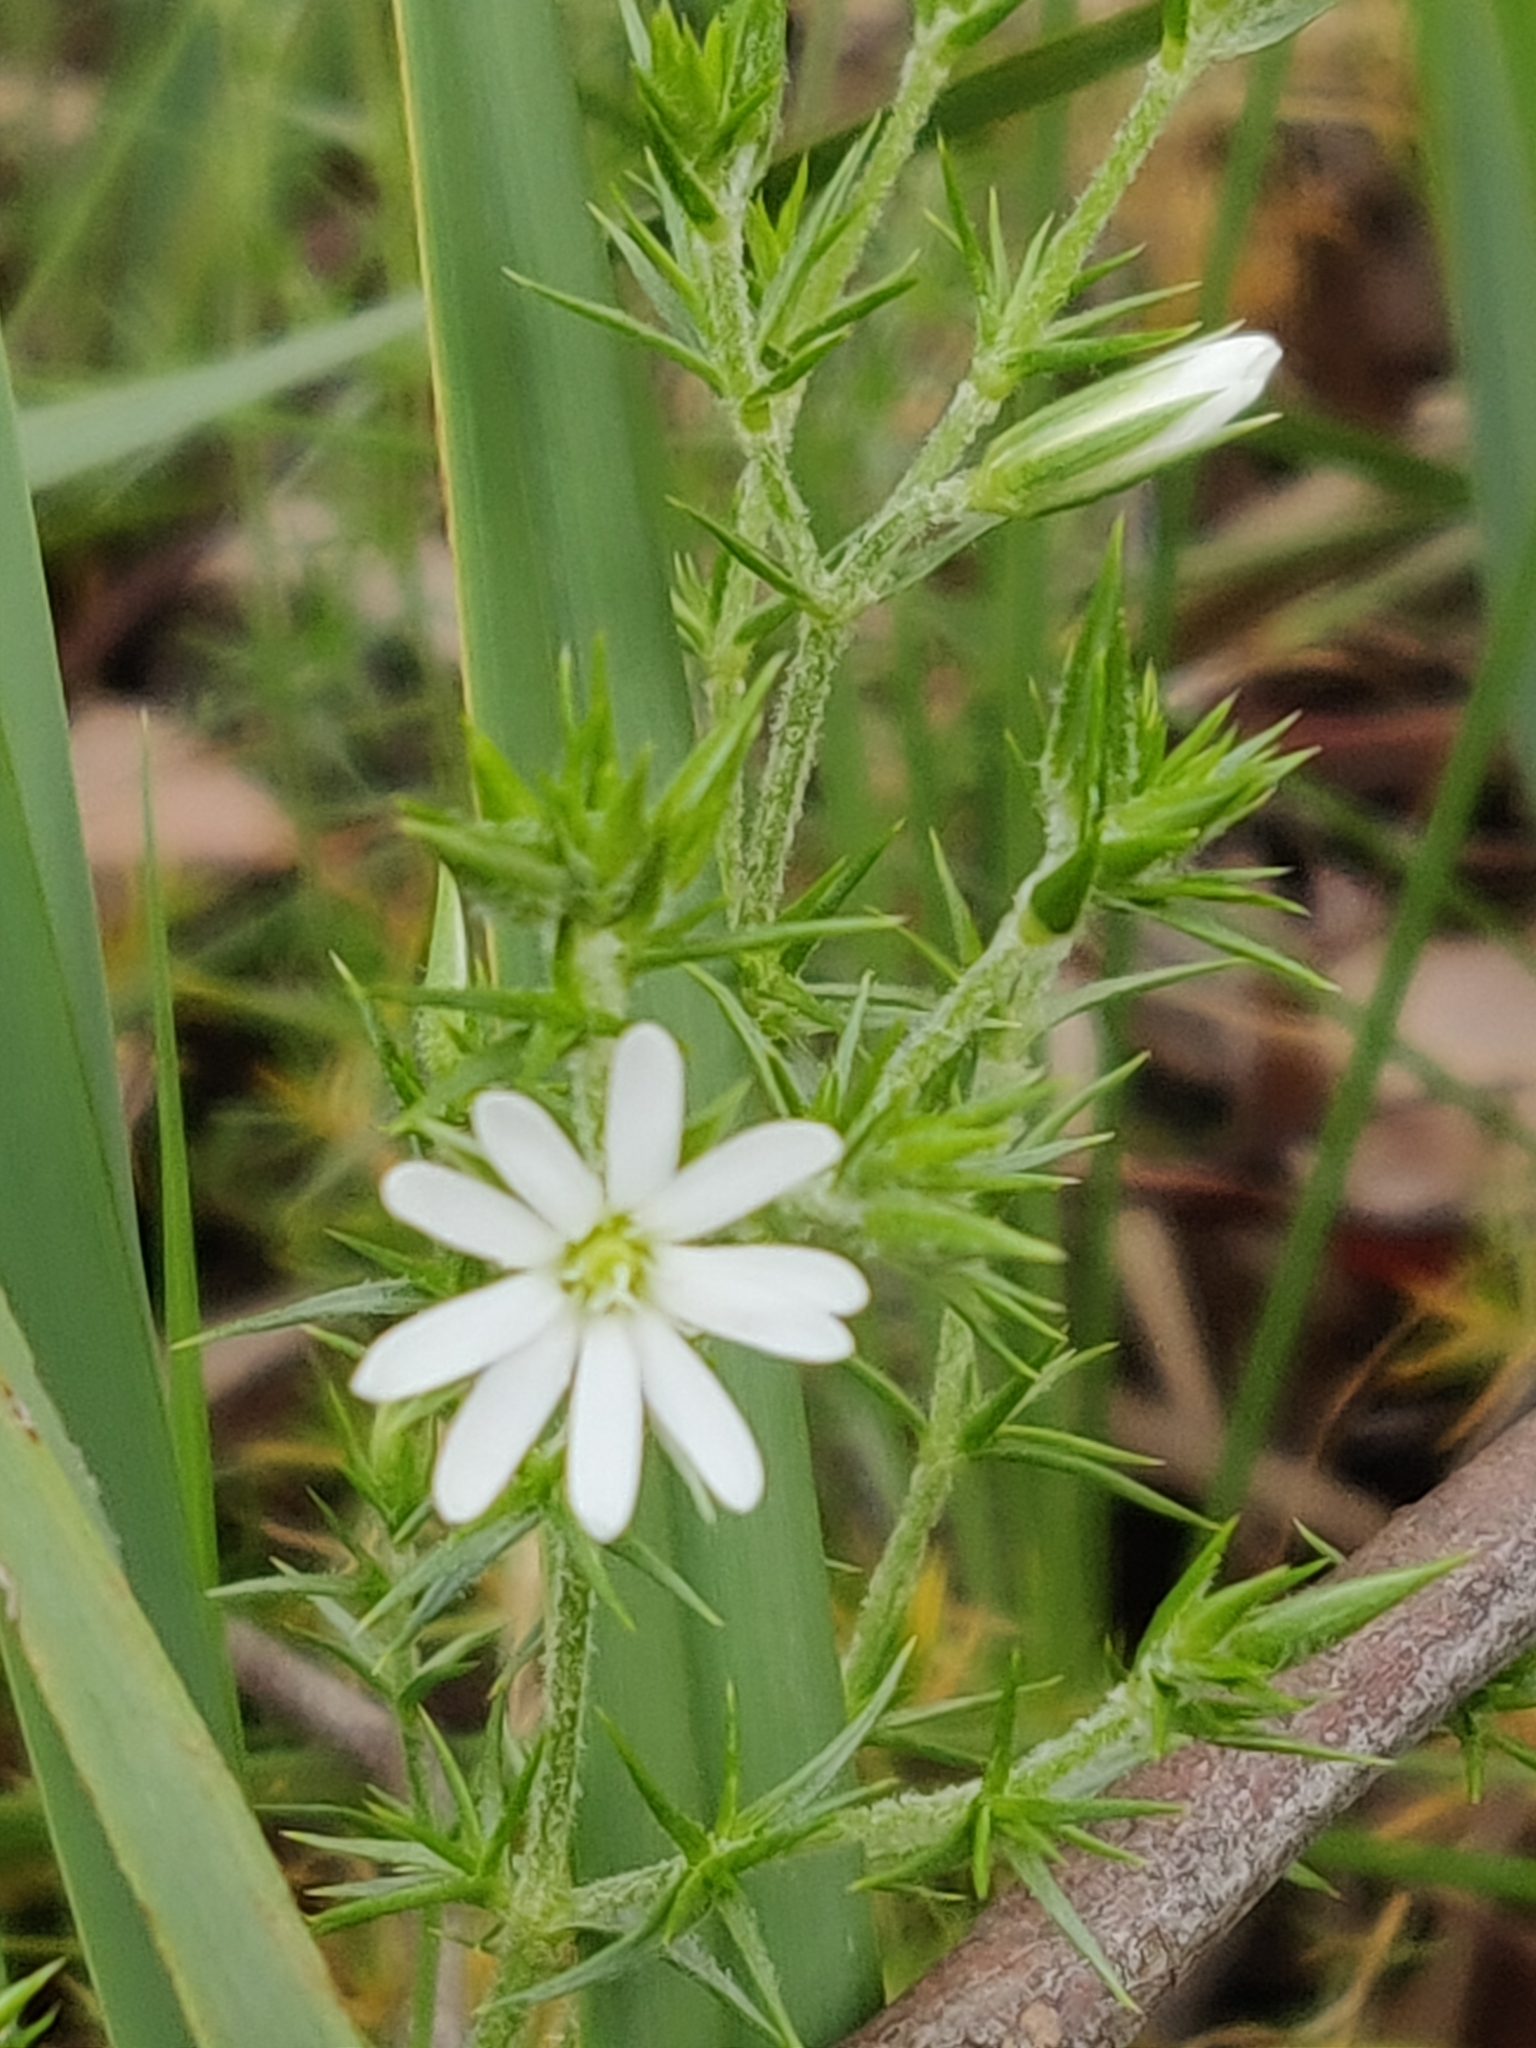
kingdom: Plantae
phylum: Tracheophyta
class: Magnoliopsida
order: Caryophyllales
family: Caryophyllaceae
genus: Stellaria
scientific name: Stellaria pungens
